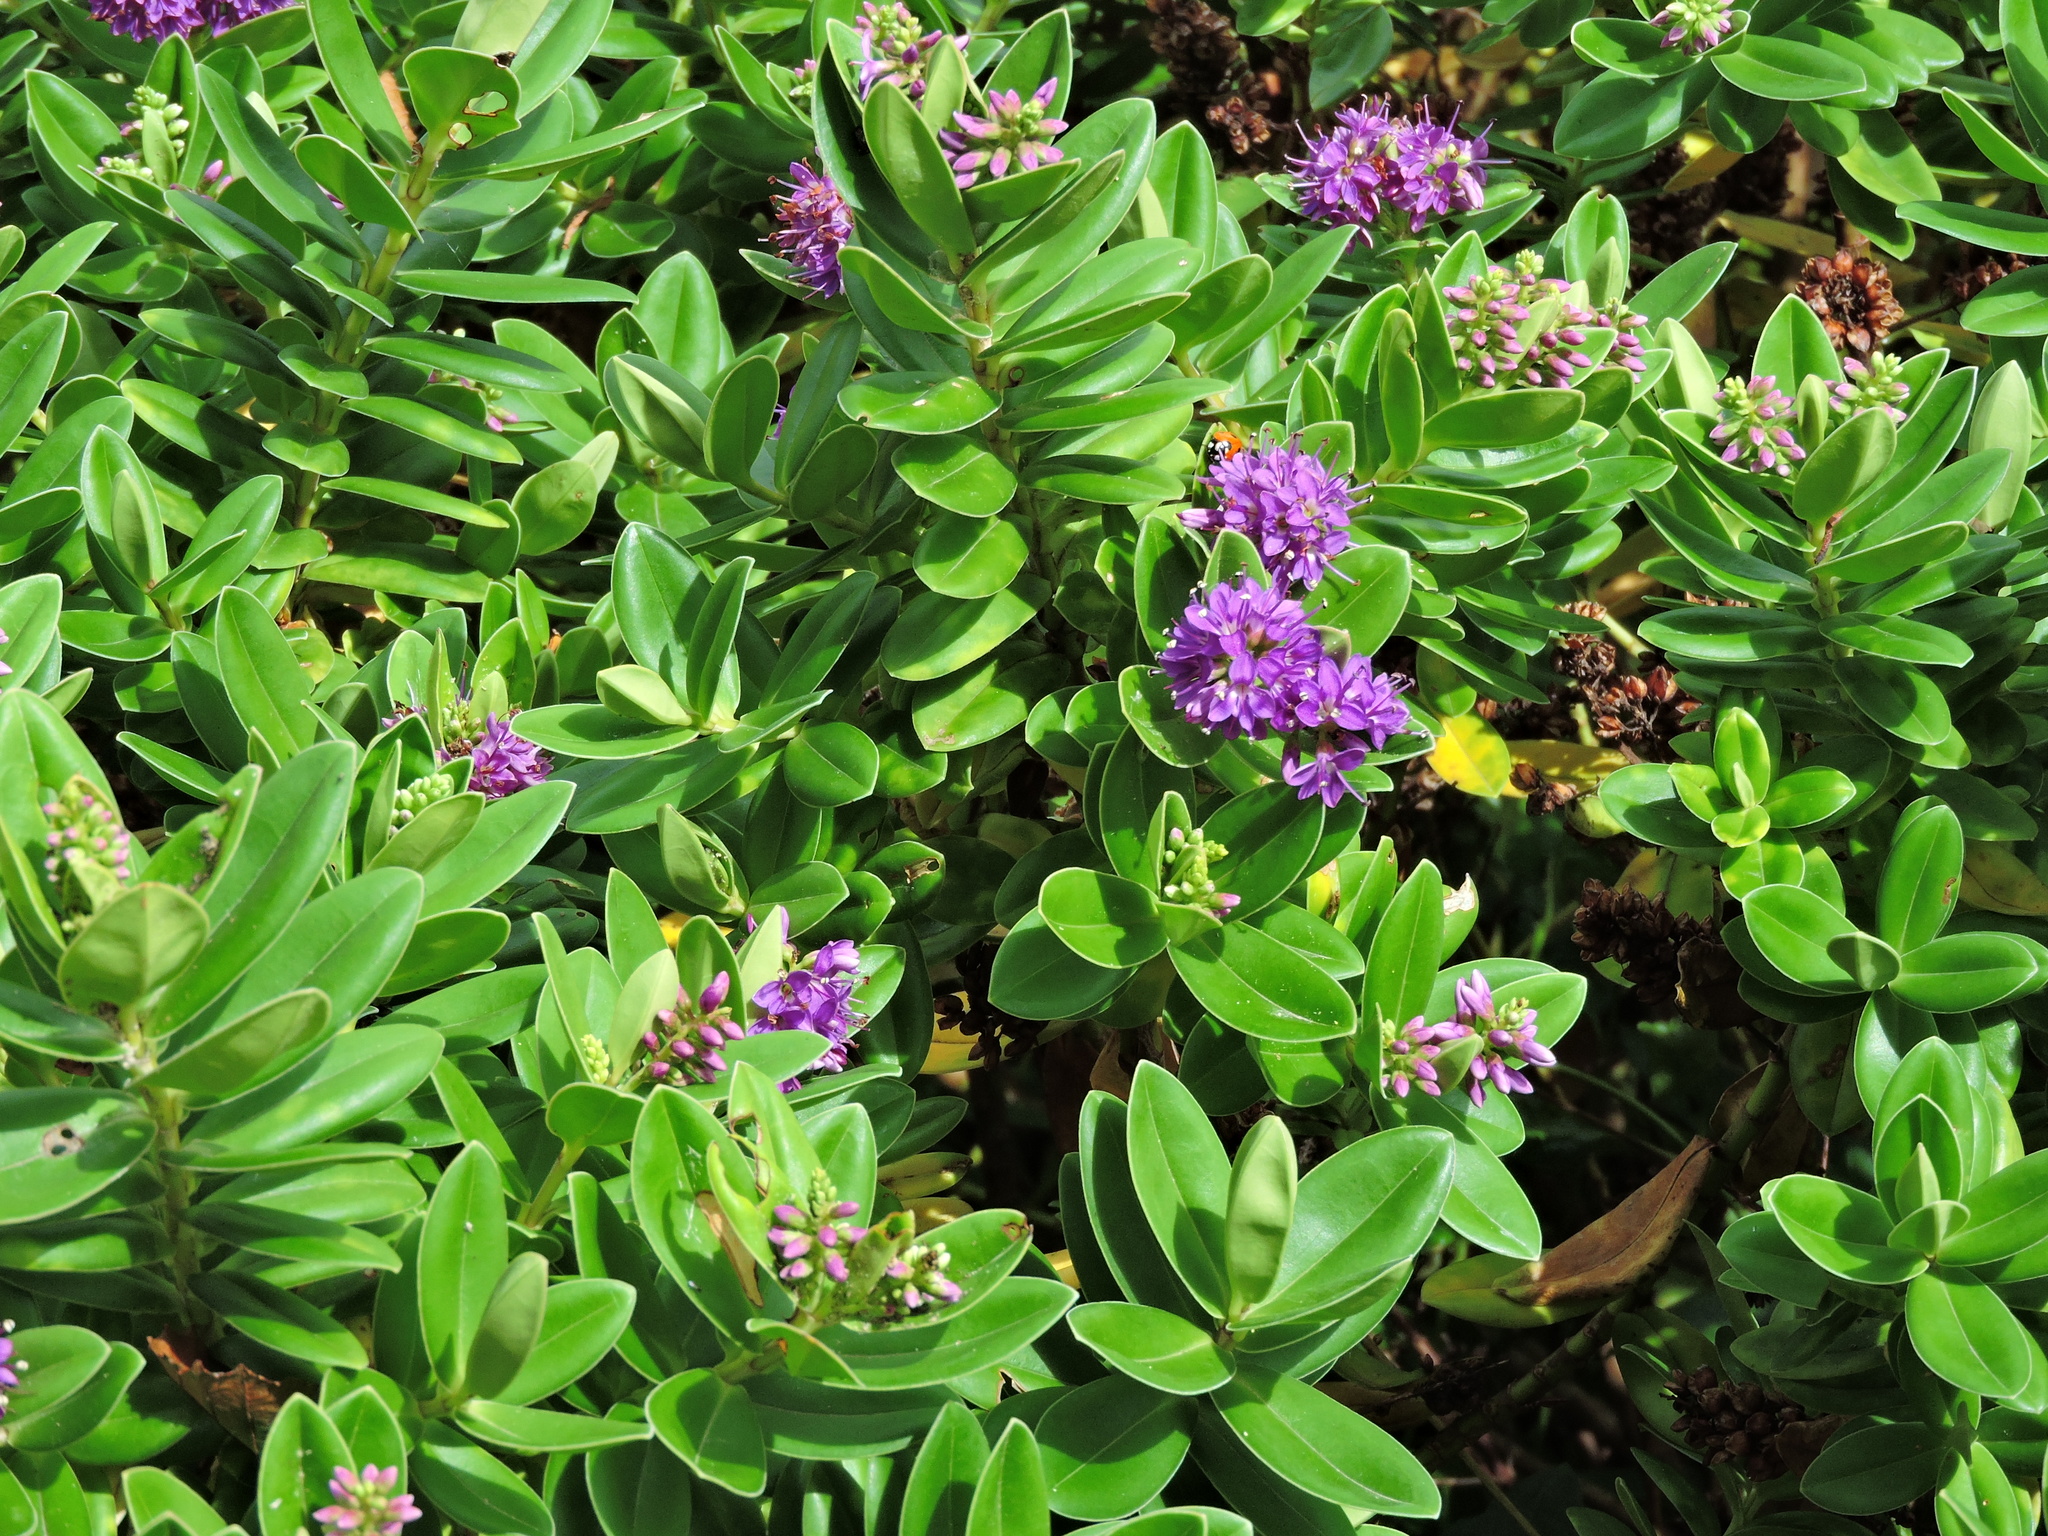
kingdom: Plantae
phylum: Tracheophyta
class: Magnoliopsida
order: Lamiales
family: Plantaginaceae
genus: Veronica
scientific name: Veronica franciscana
